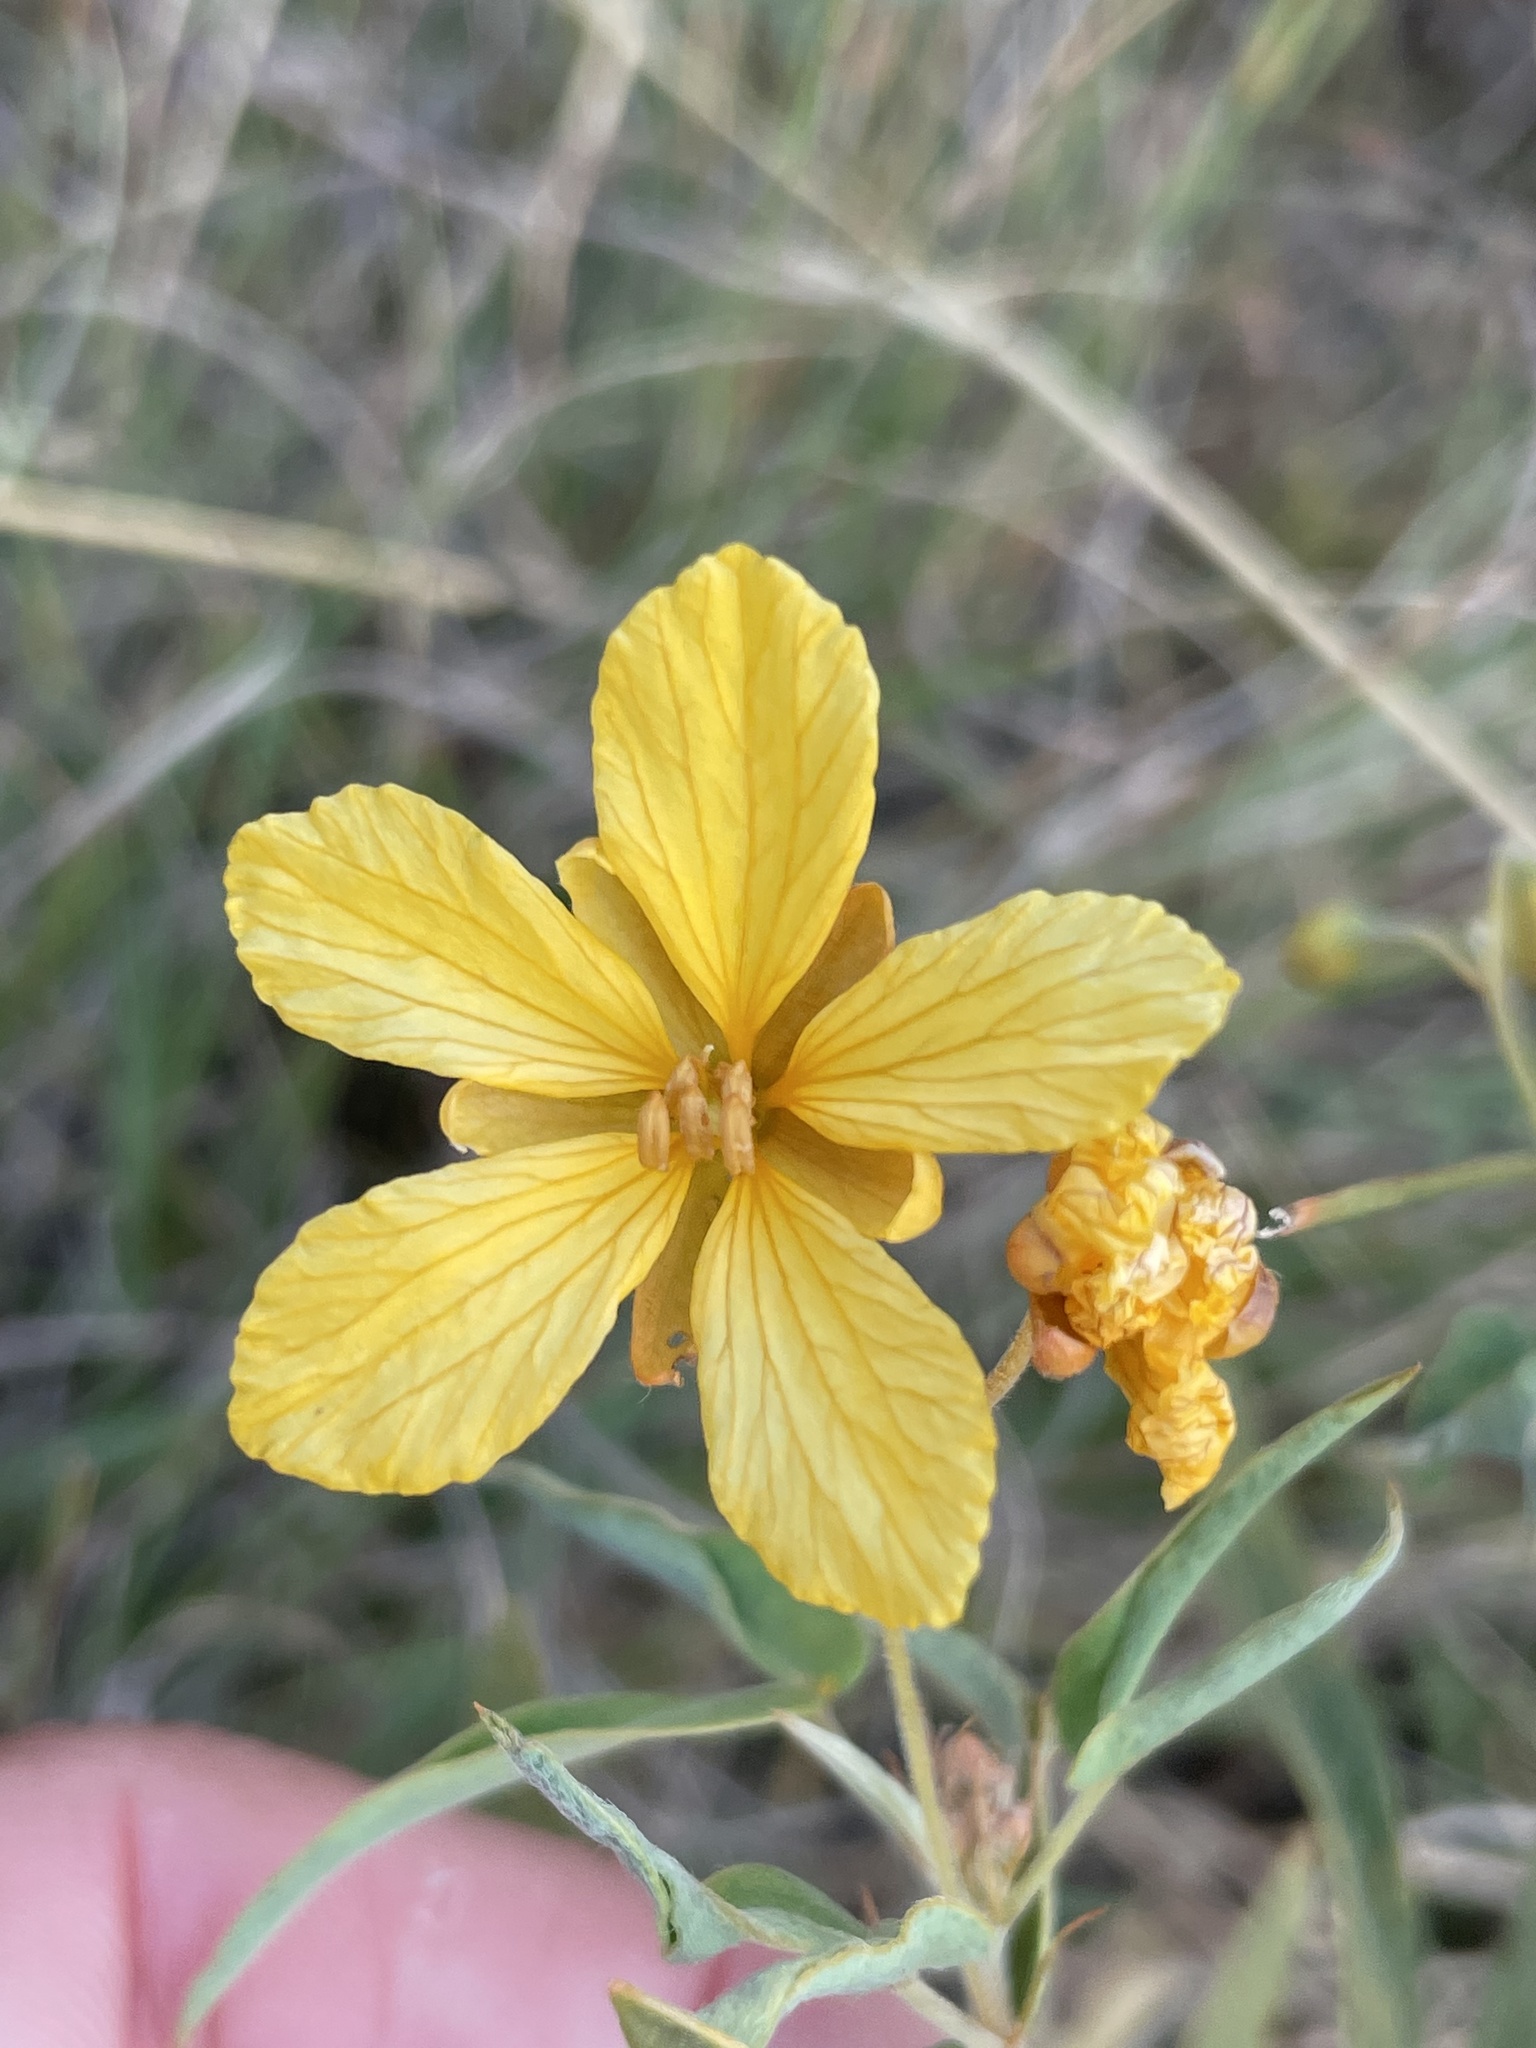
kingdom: Plantae
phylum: Tracheophyta
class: Magnoliopsida
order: Fabales
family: Fabaceae
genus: Senna
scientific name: Senna roemeriana
